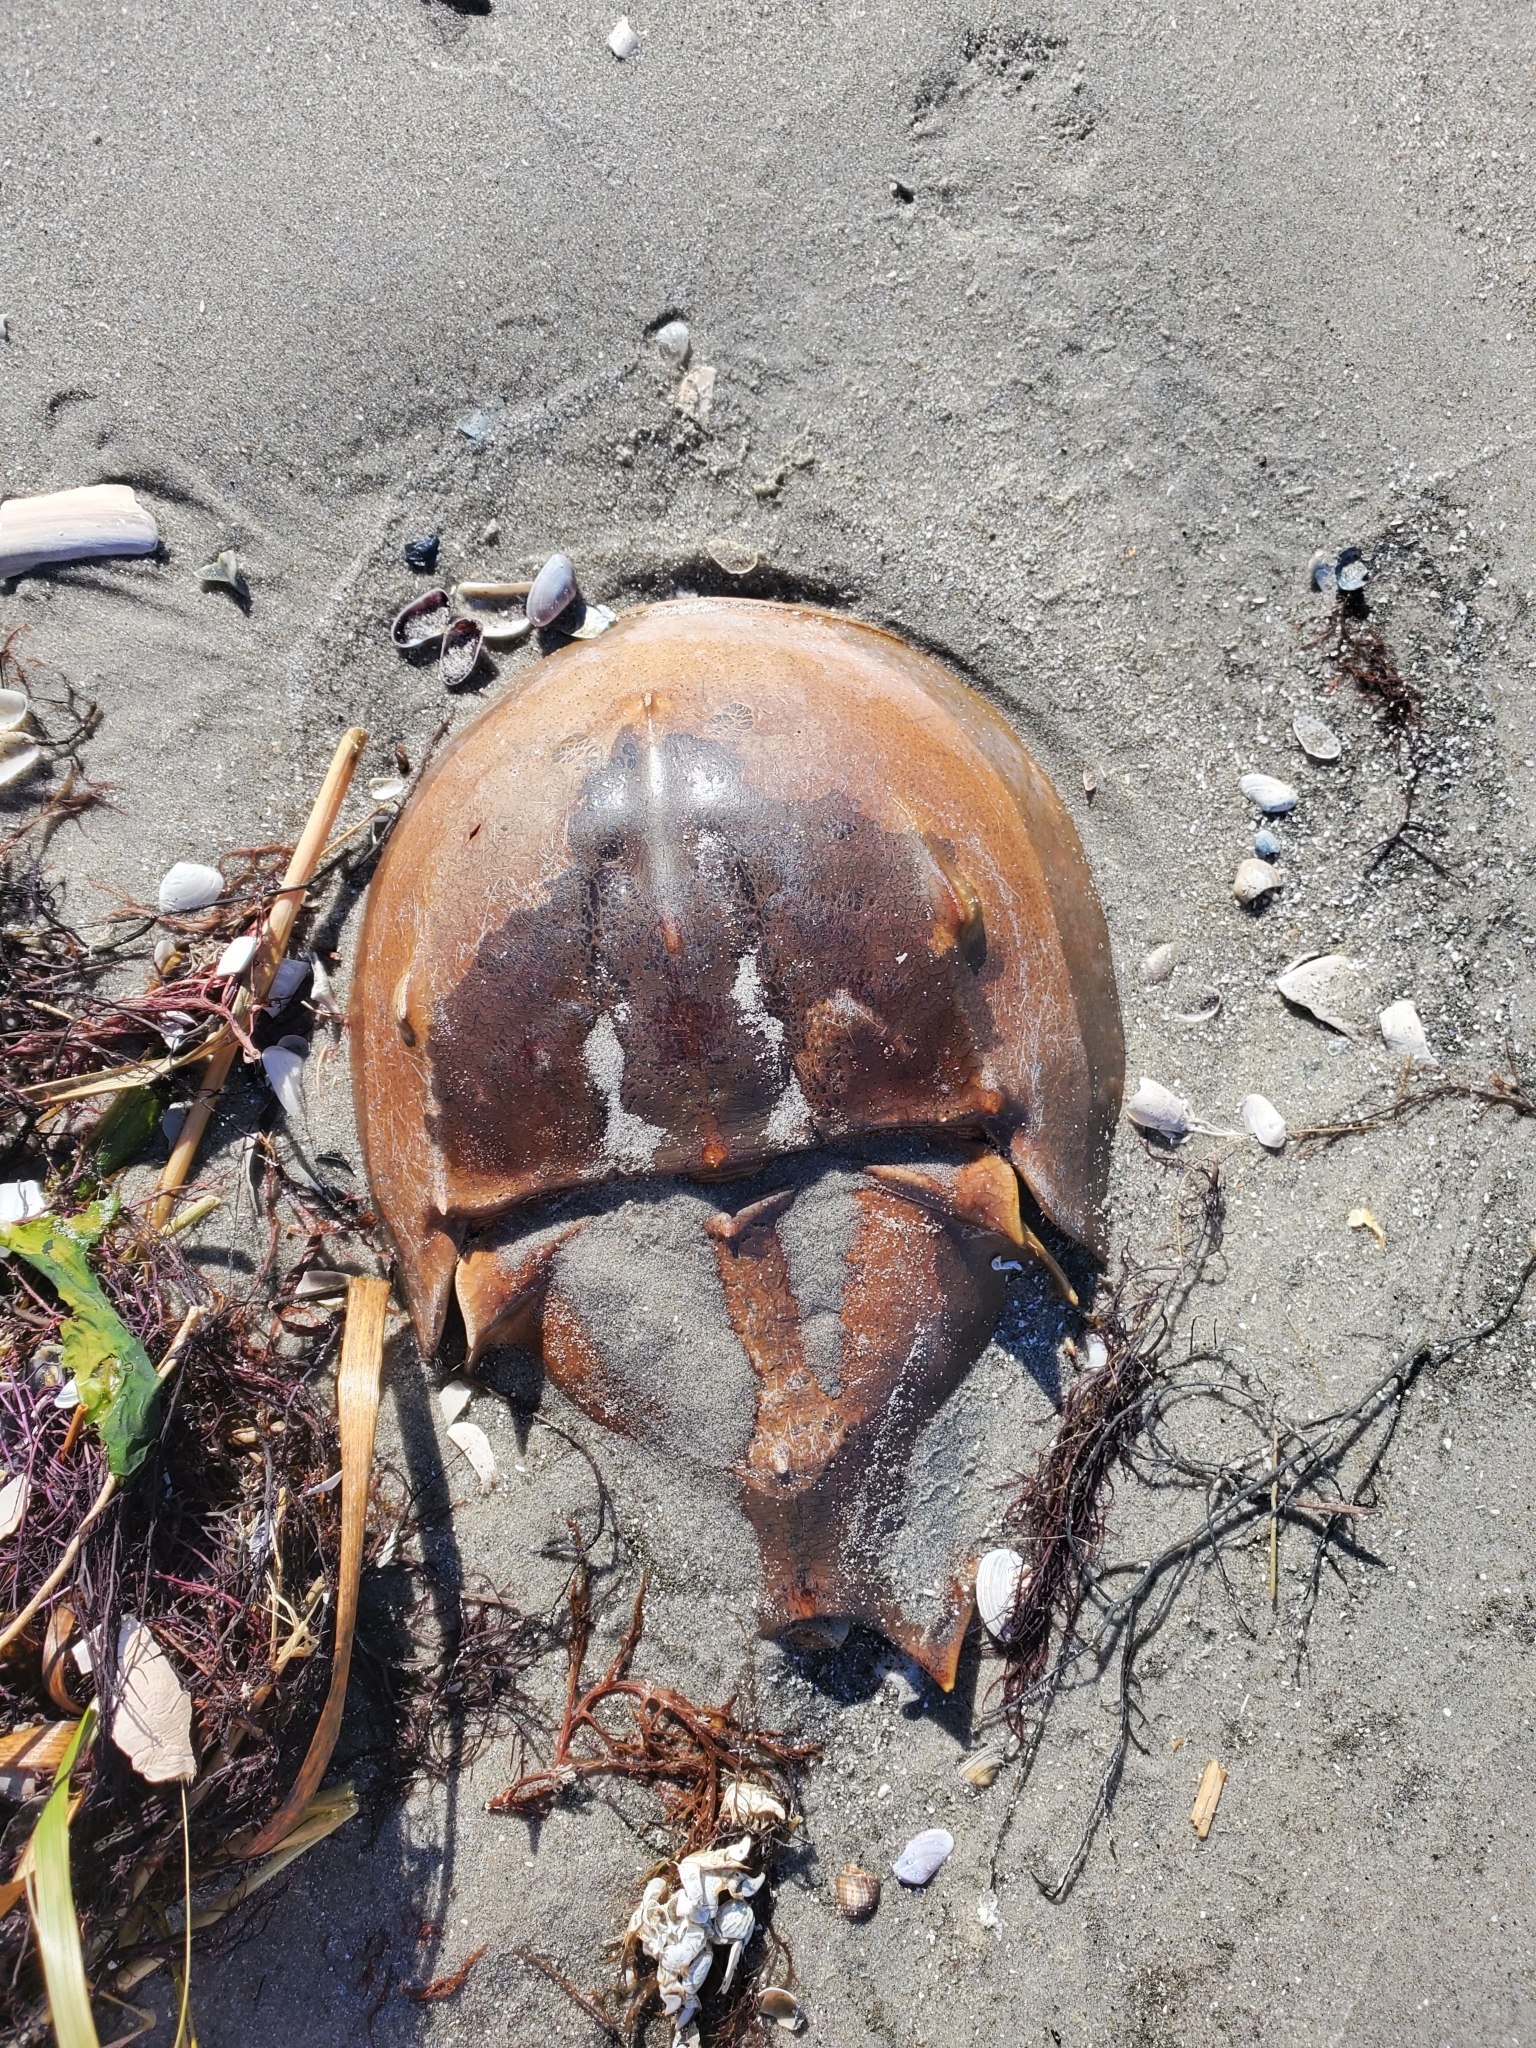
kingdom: Animalia
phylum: Arthropoda
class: Merostomata
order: Xiphosurida
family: Limulidae
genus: Limulus
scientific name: Limulus polyphemus
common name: Horseshoe crab
